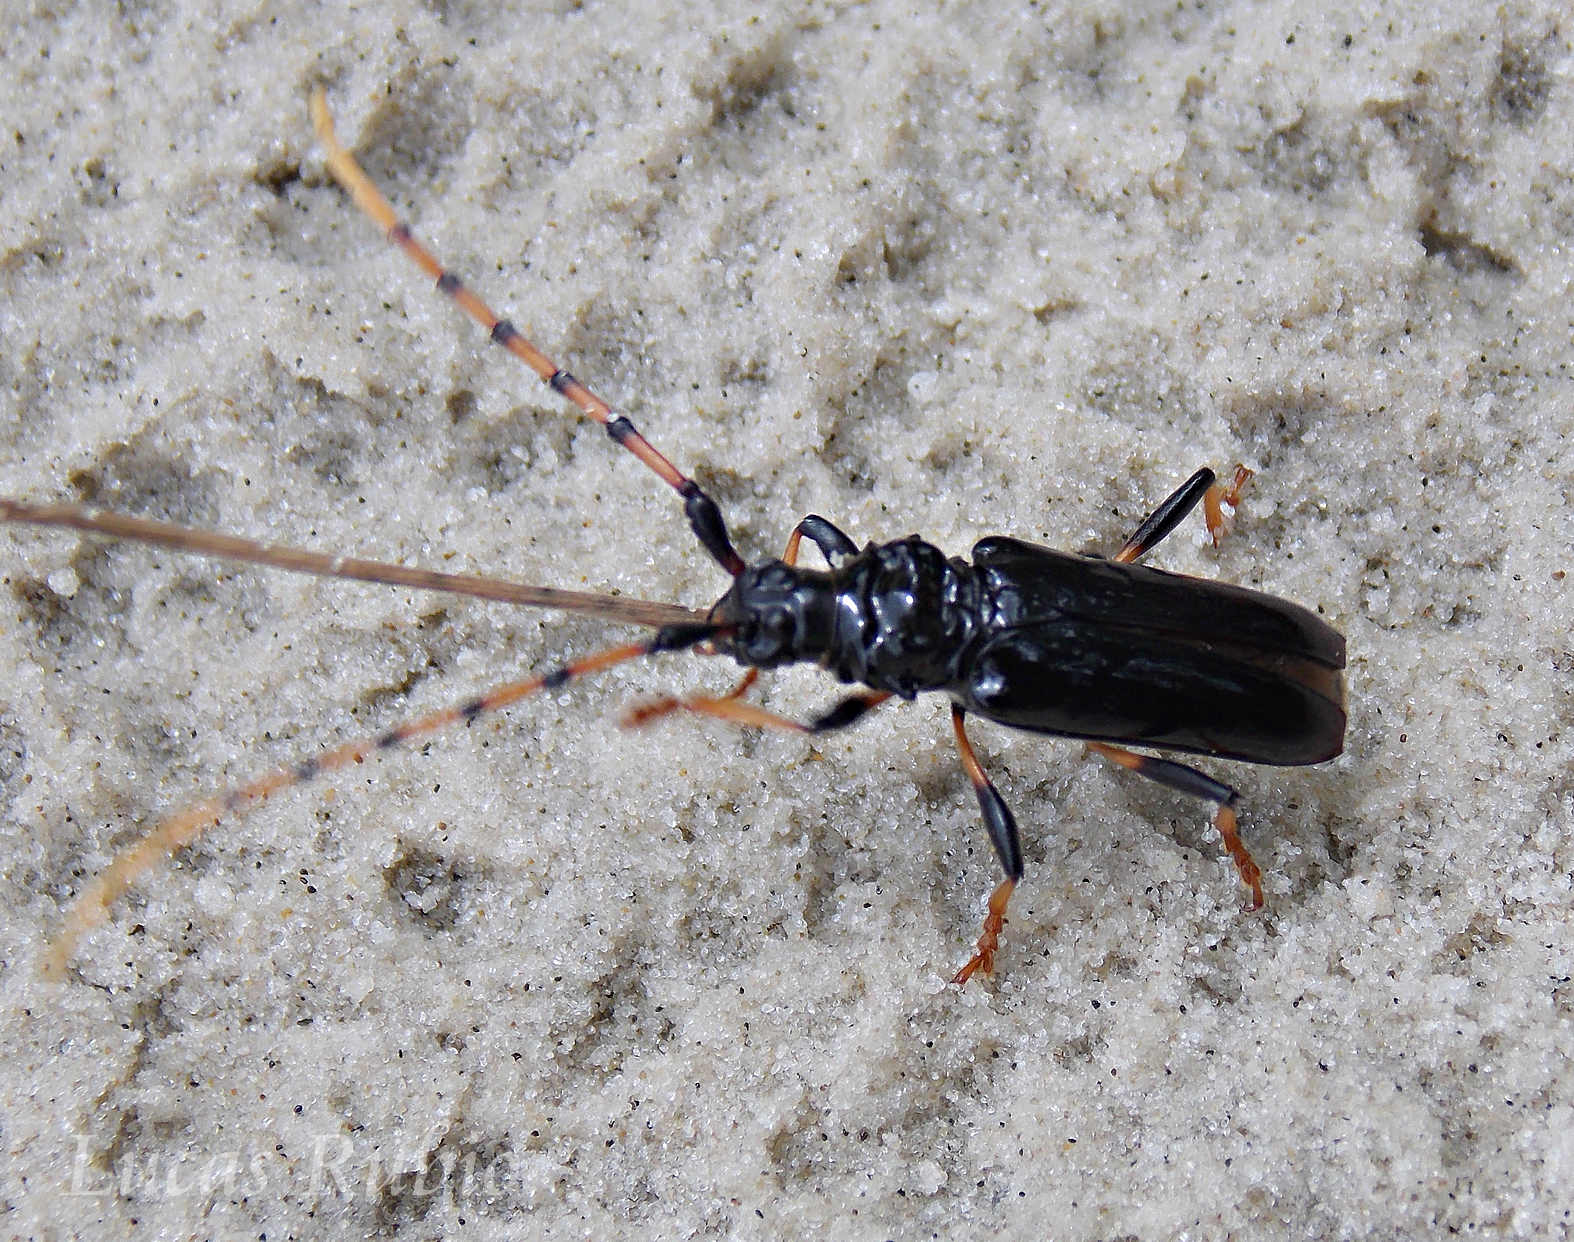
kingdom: Animalia
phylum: Arthropoda
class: Insecta
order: Coleoptera
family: Cerambycidae
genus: Andraegoidus
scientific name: Andraegoidus rufipes
